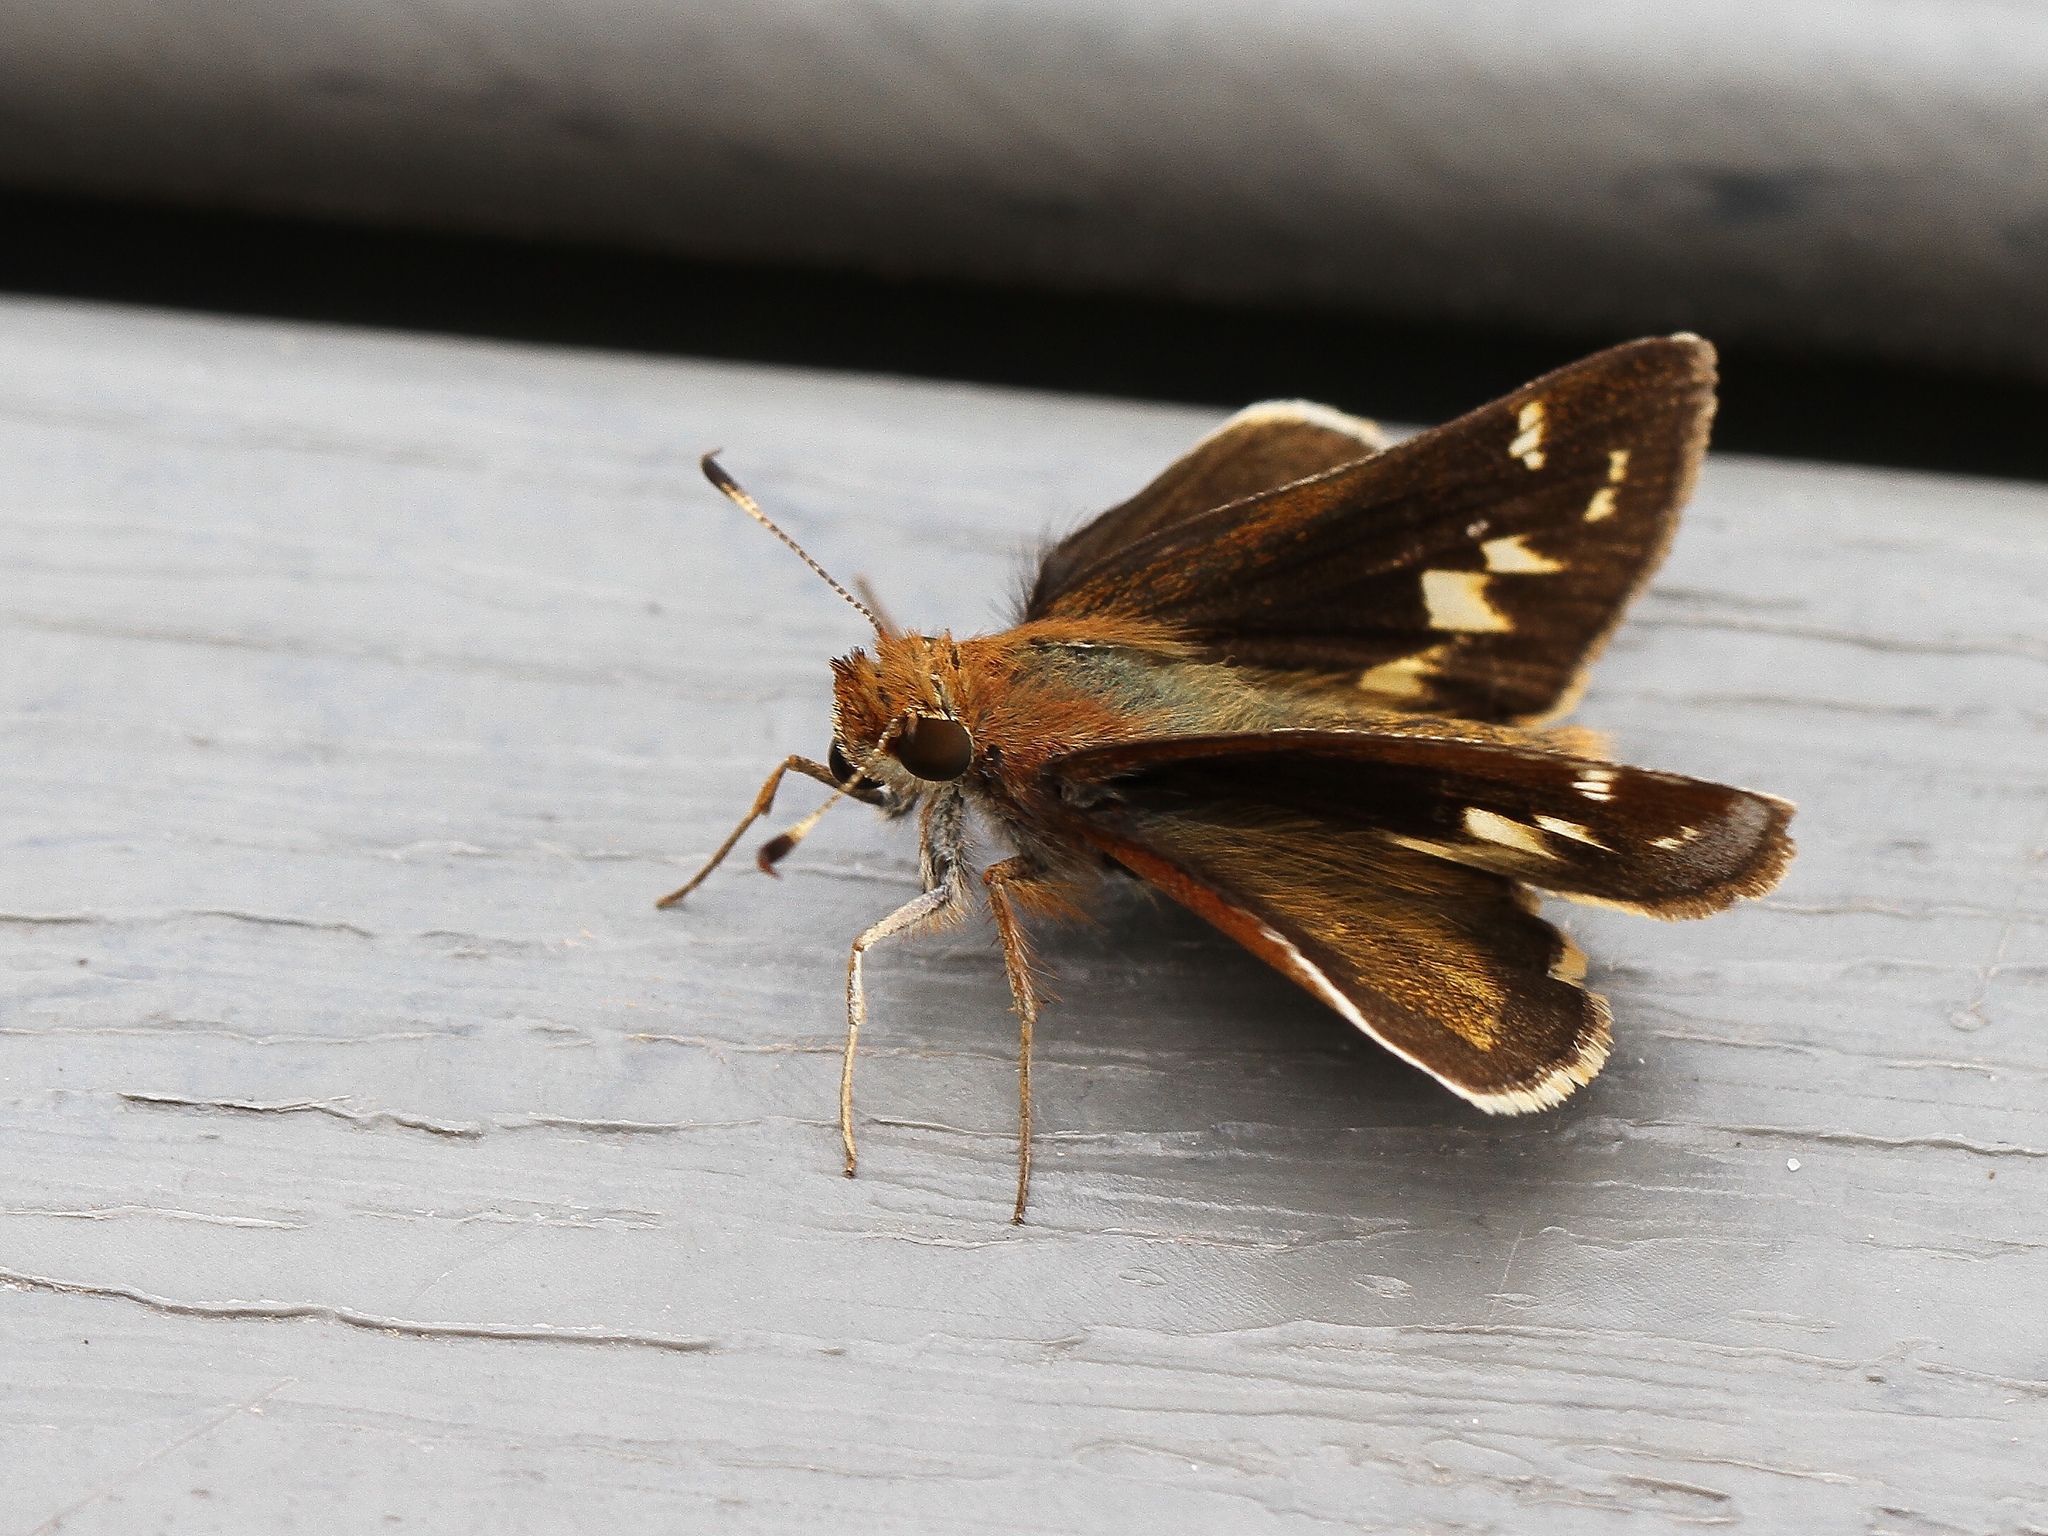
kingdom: Animalia
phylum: Arthropoda
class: Insecta
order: Lepidoptera
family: Hesperiidae
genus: Lon
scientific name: Lon zabulon
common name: Zabulon skipper
